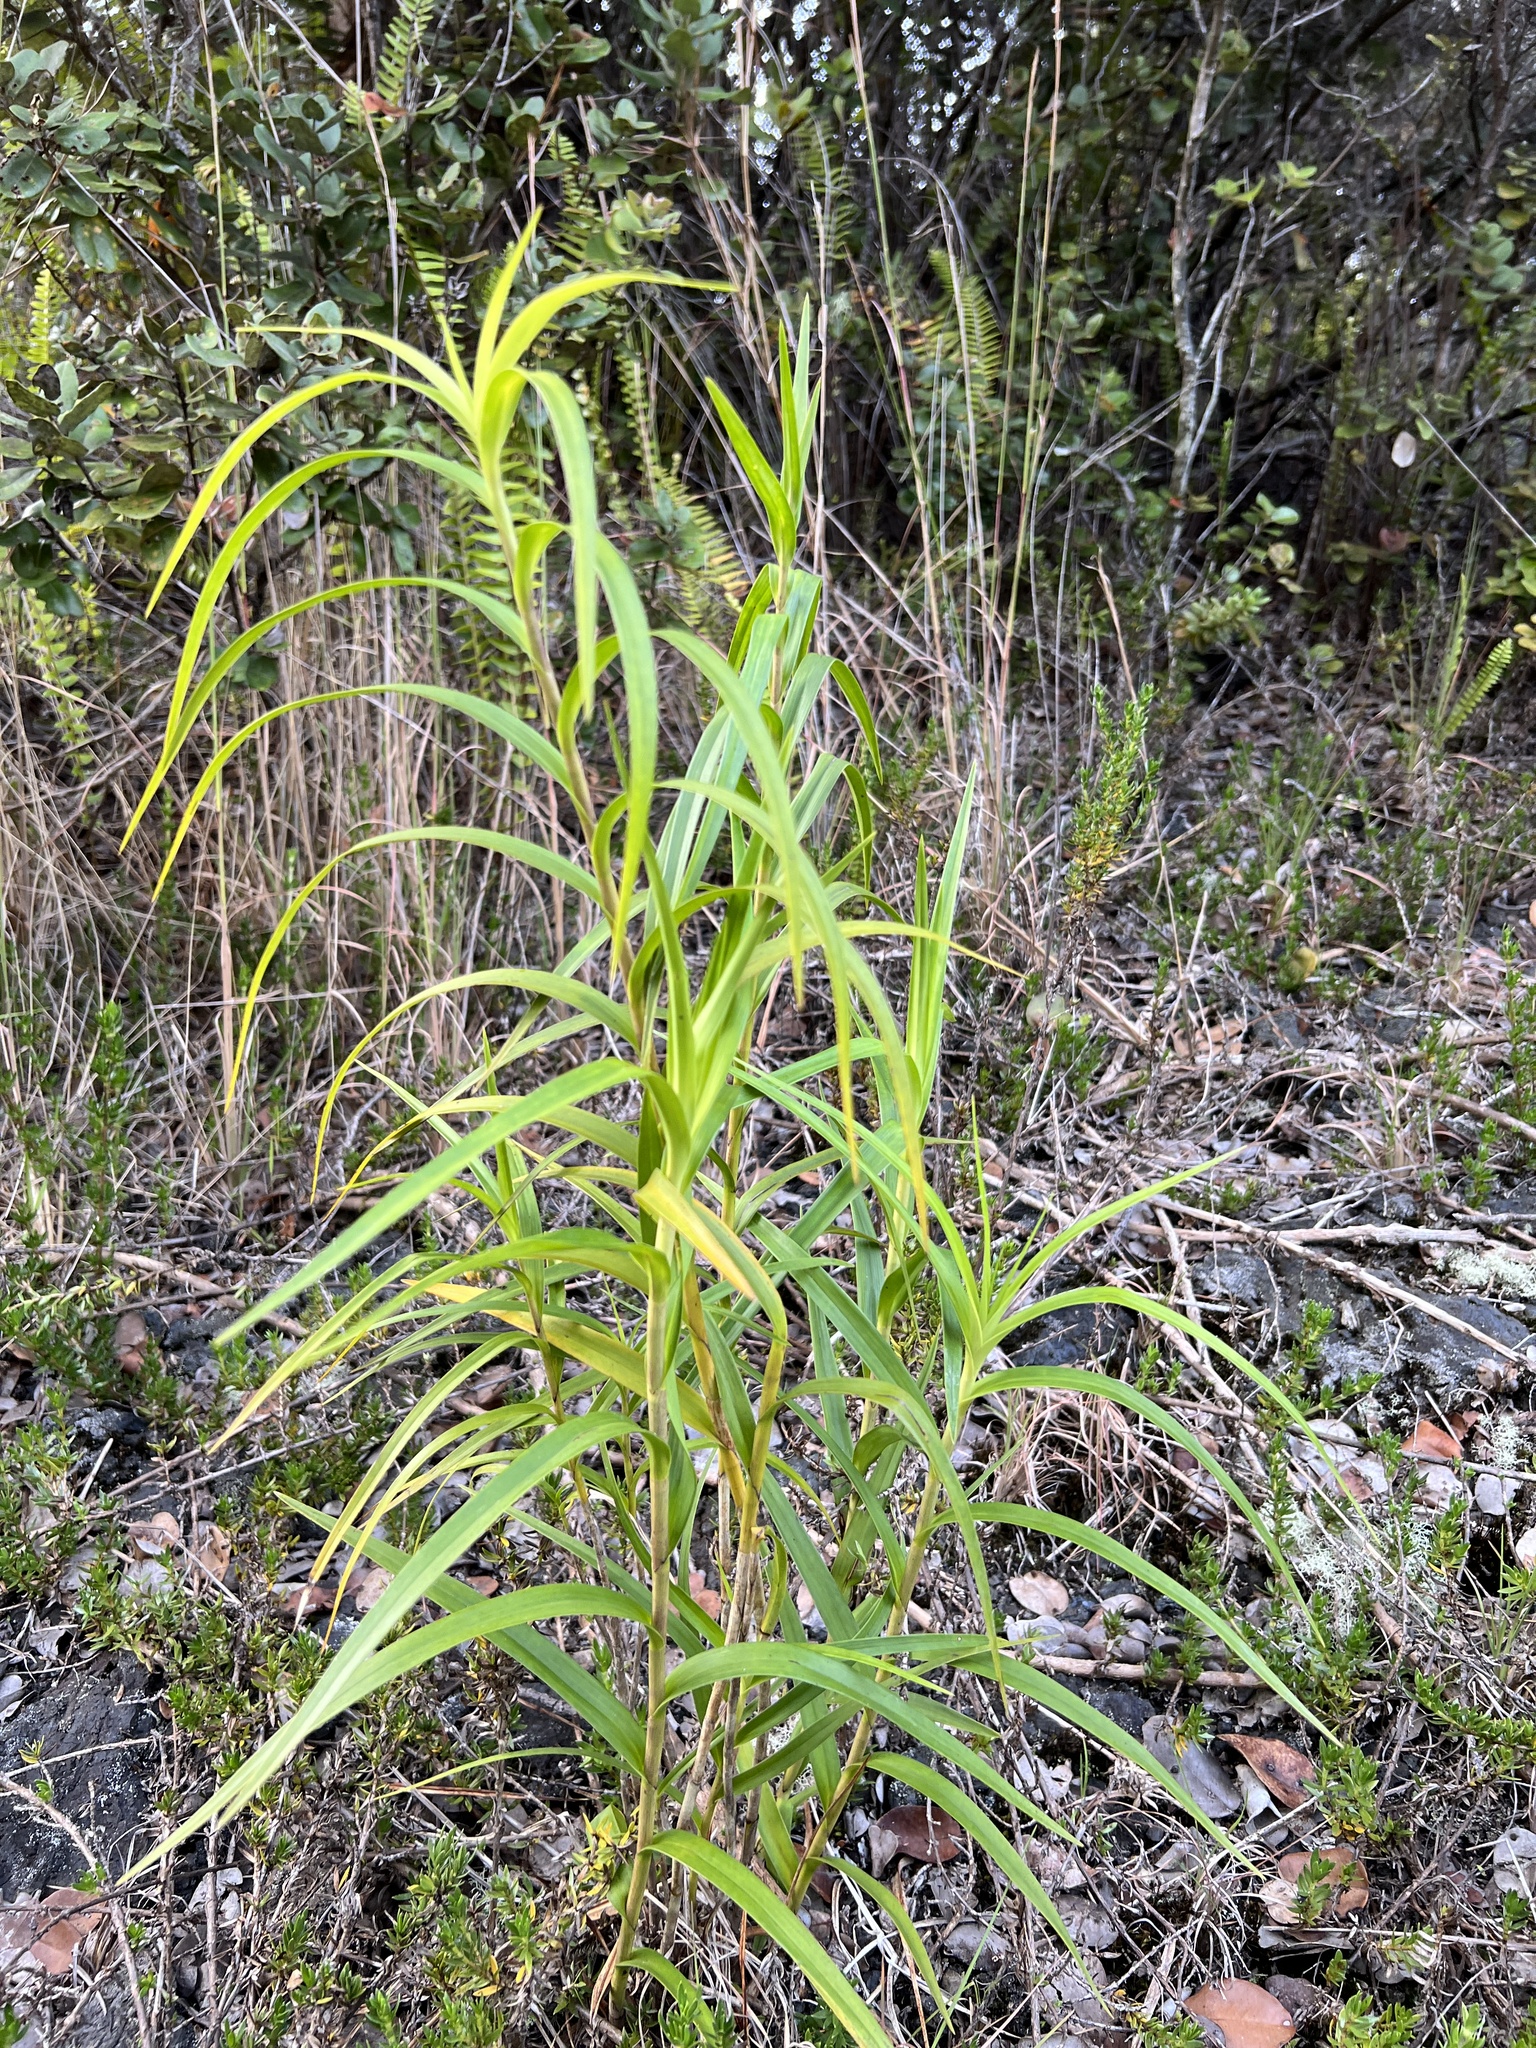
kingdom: Plantae
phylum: Tracheophyta
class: Liliopsida
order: Asparagales
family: Orchidaceae
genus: Arundina
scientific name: Arundina graminifolia
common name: Bamboo orchid
